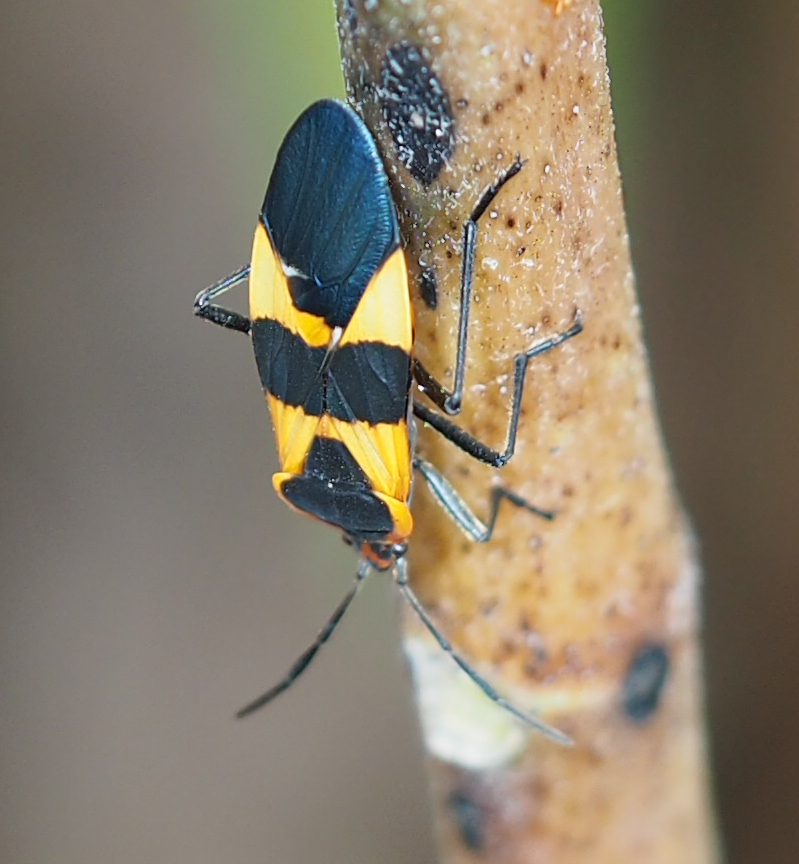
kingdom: Animalia
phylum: Arthropoda
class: Insecta
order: Hemiptera
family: Lygaeidae
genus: Oncopeltus
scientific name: Oncopeltus fasciatus
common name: Large milkweed bug
